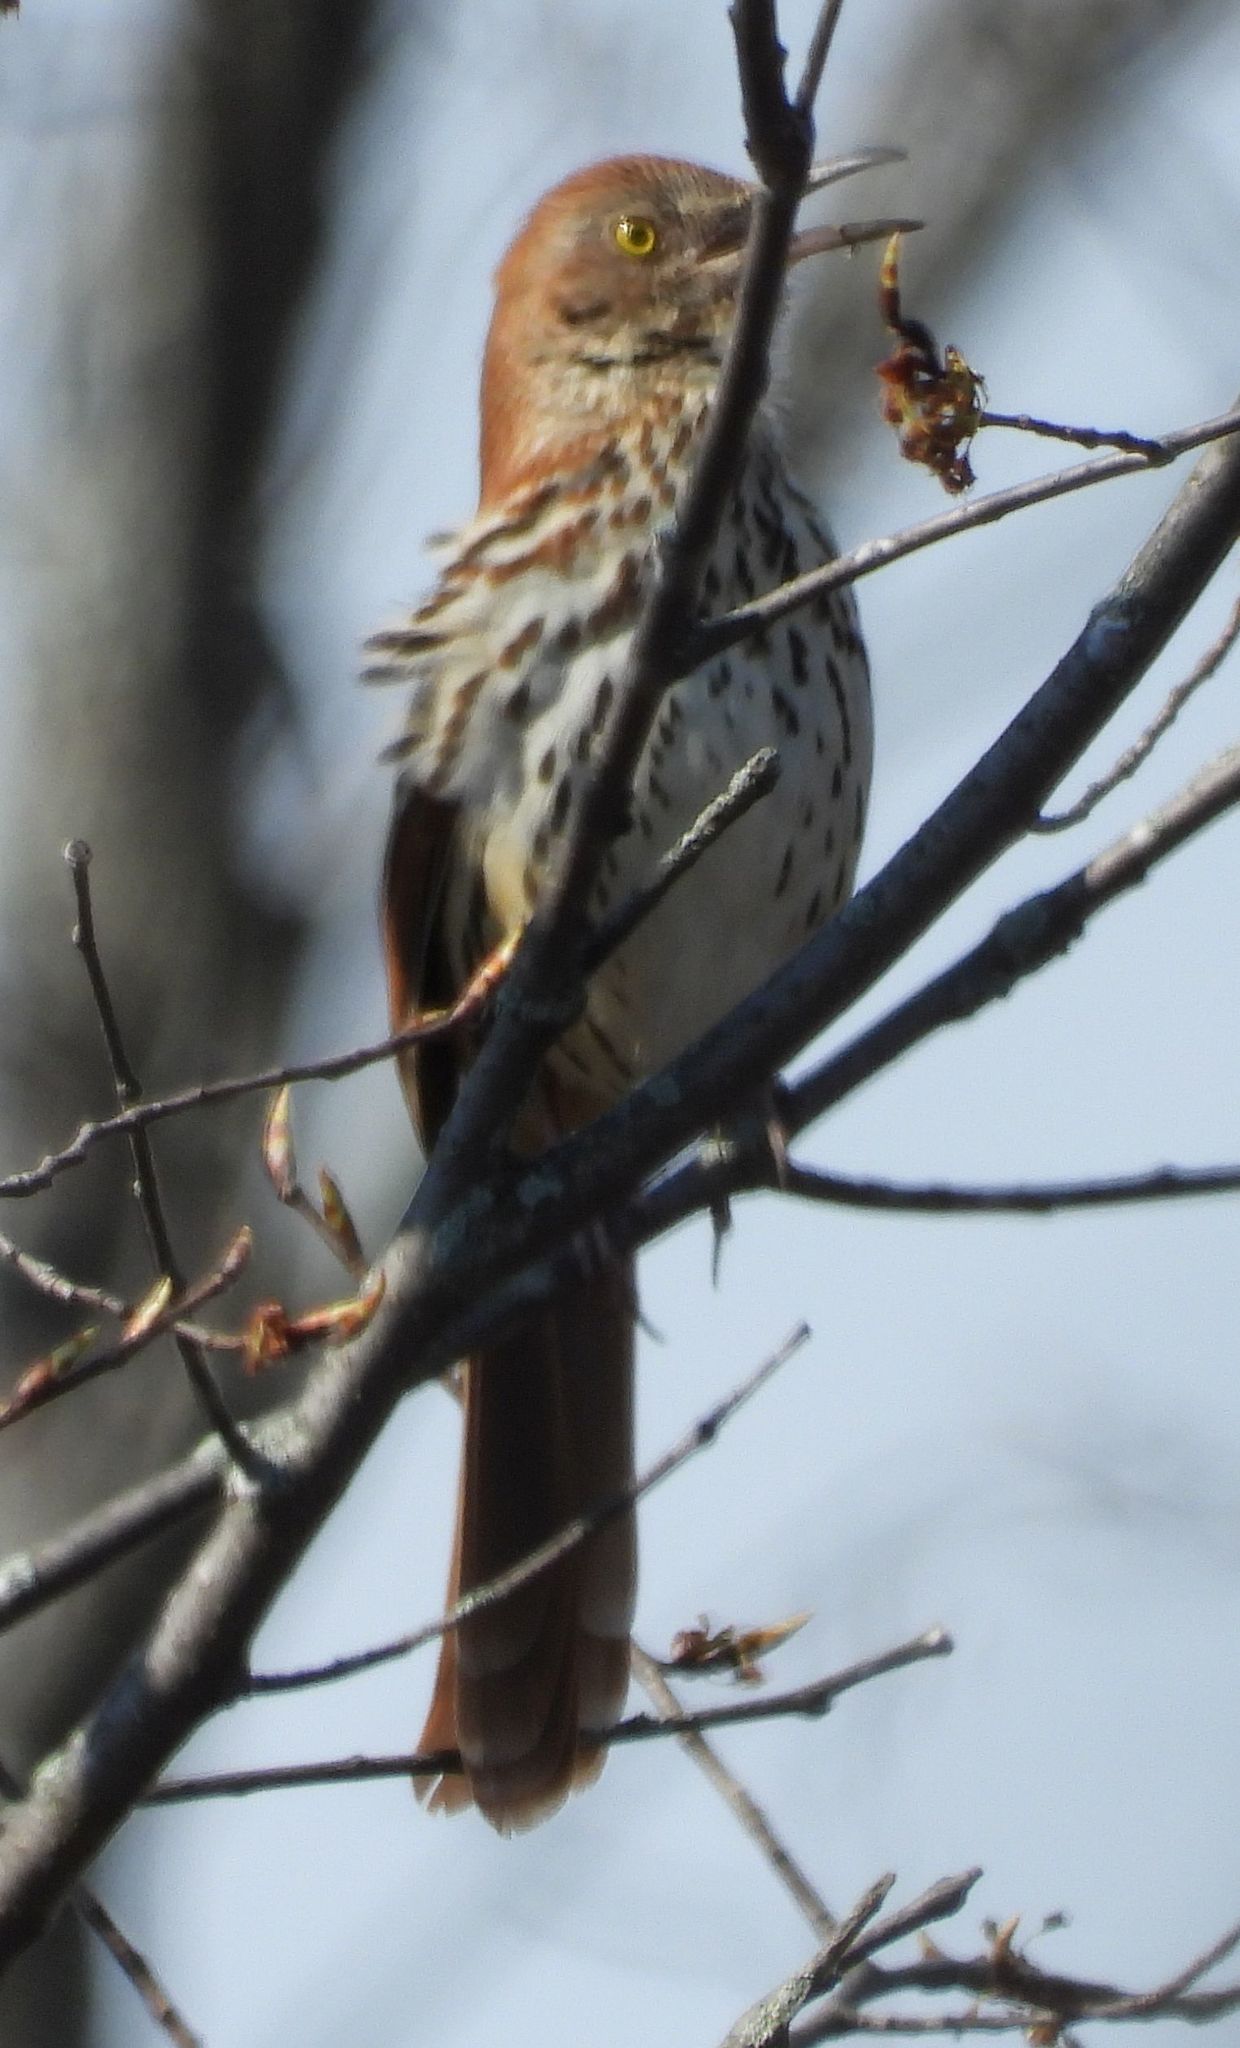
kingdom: Animalia
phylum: Chordata
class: Aves
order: Passeriformes
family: Mimidae
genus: Toxostoma
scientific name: Toxostoma rufum
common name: Brown thrasher
